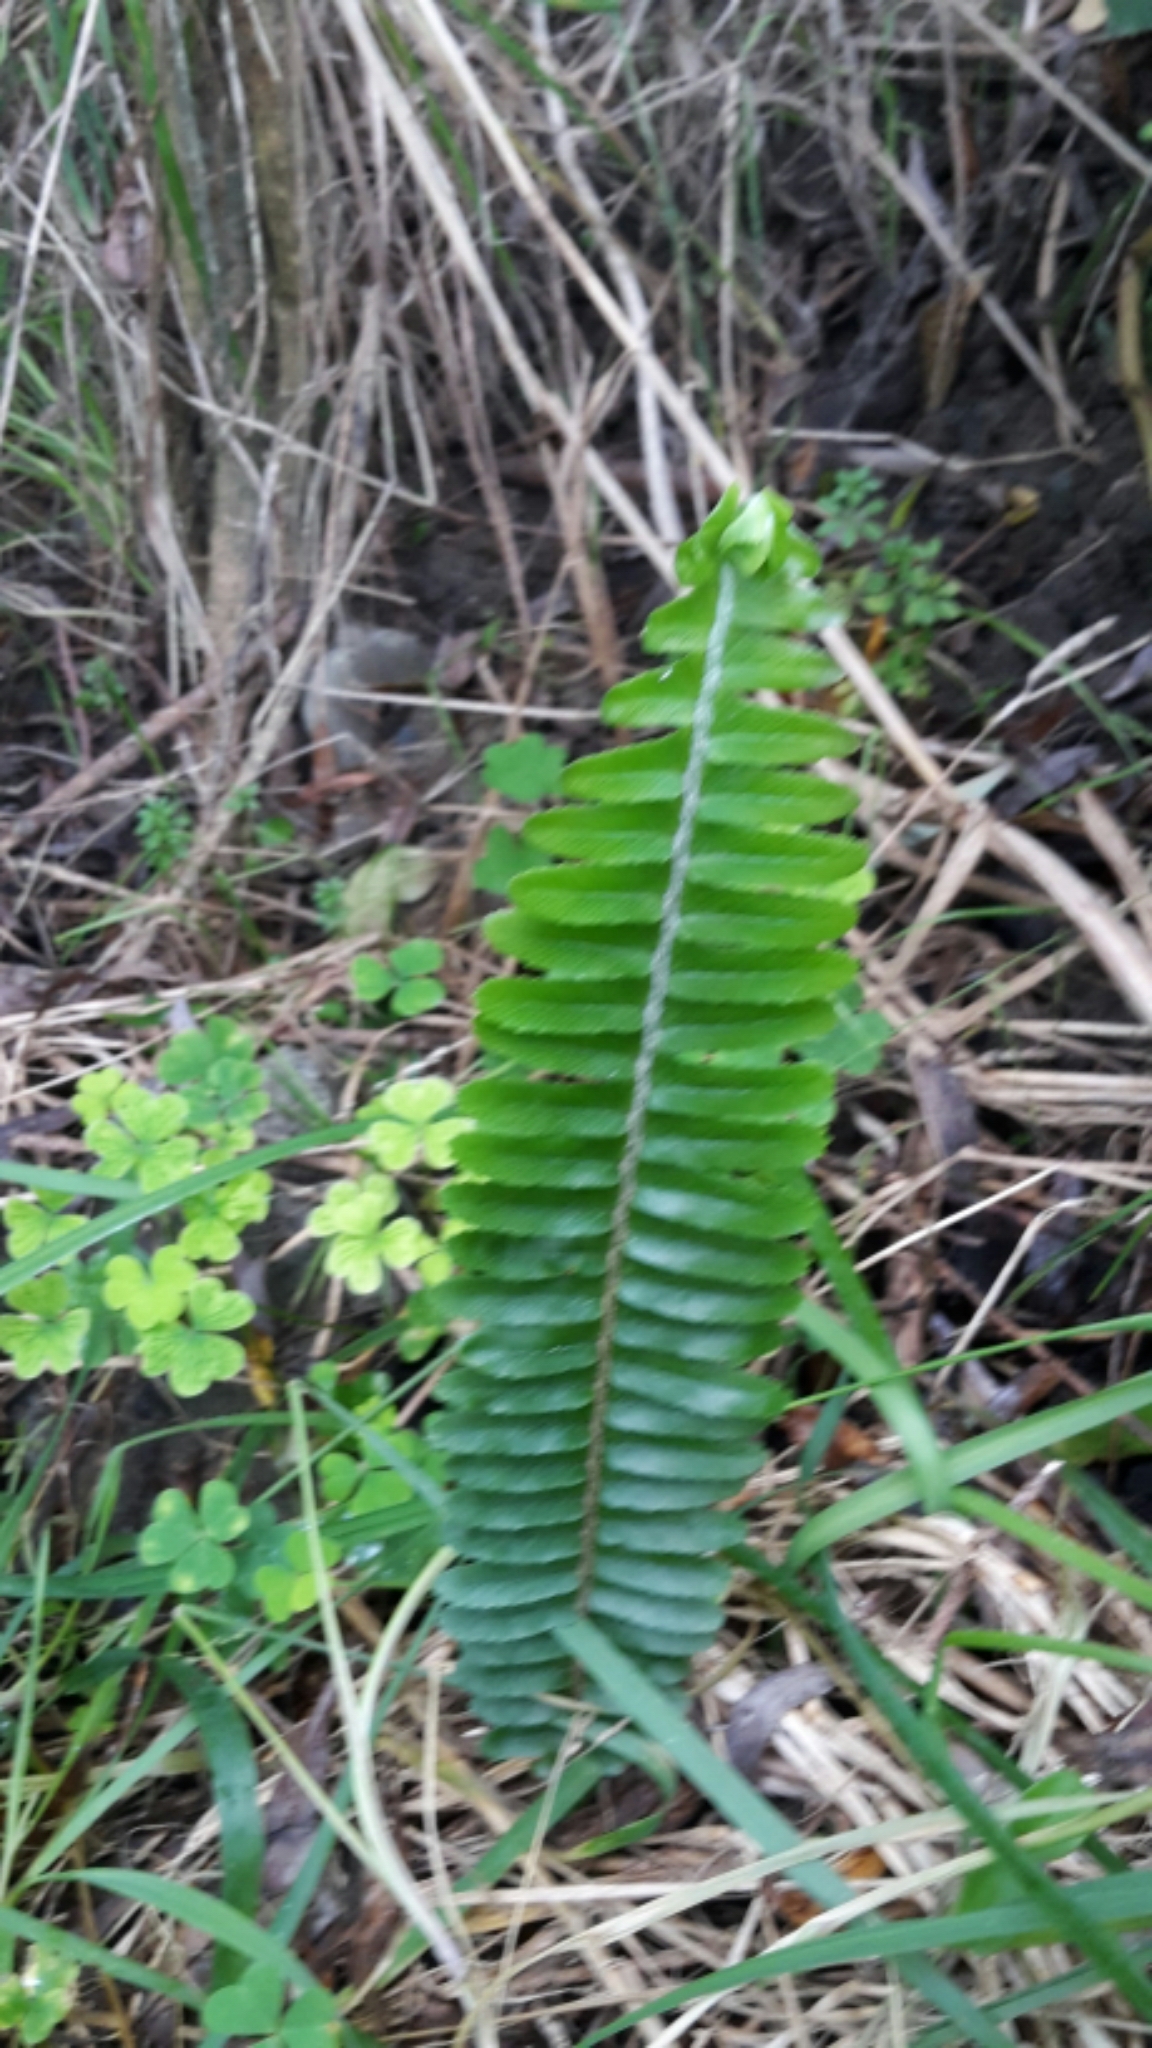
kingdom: Plantae
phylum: Tracheophyta
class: Polypodiopsida
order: Polypodiales
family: Nephrolepidaceae
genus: Nephrolepis
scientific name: Nephrolepis cordifolia
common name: Narrow swordfern
